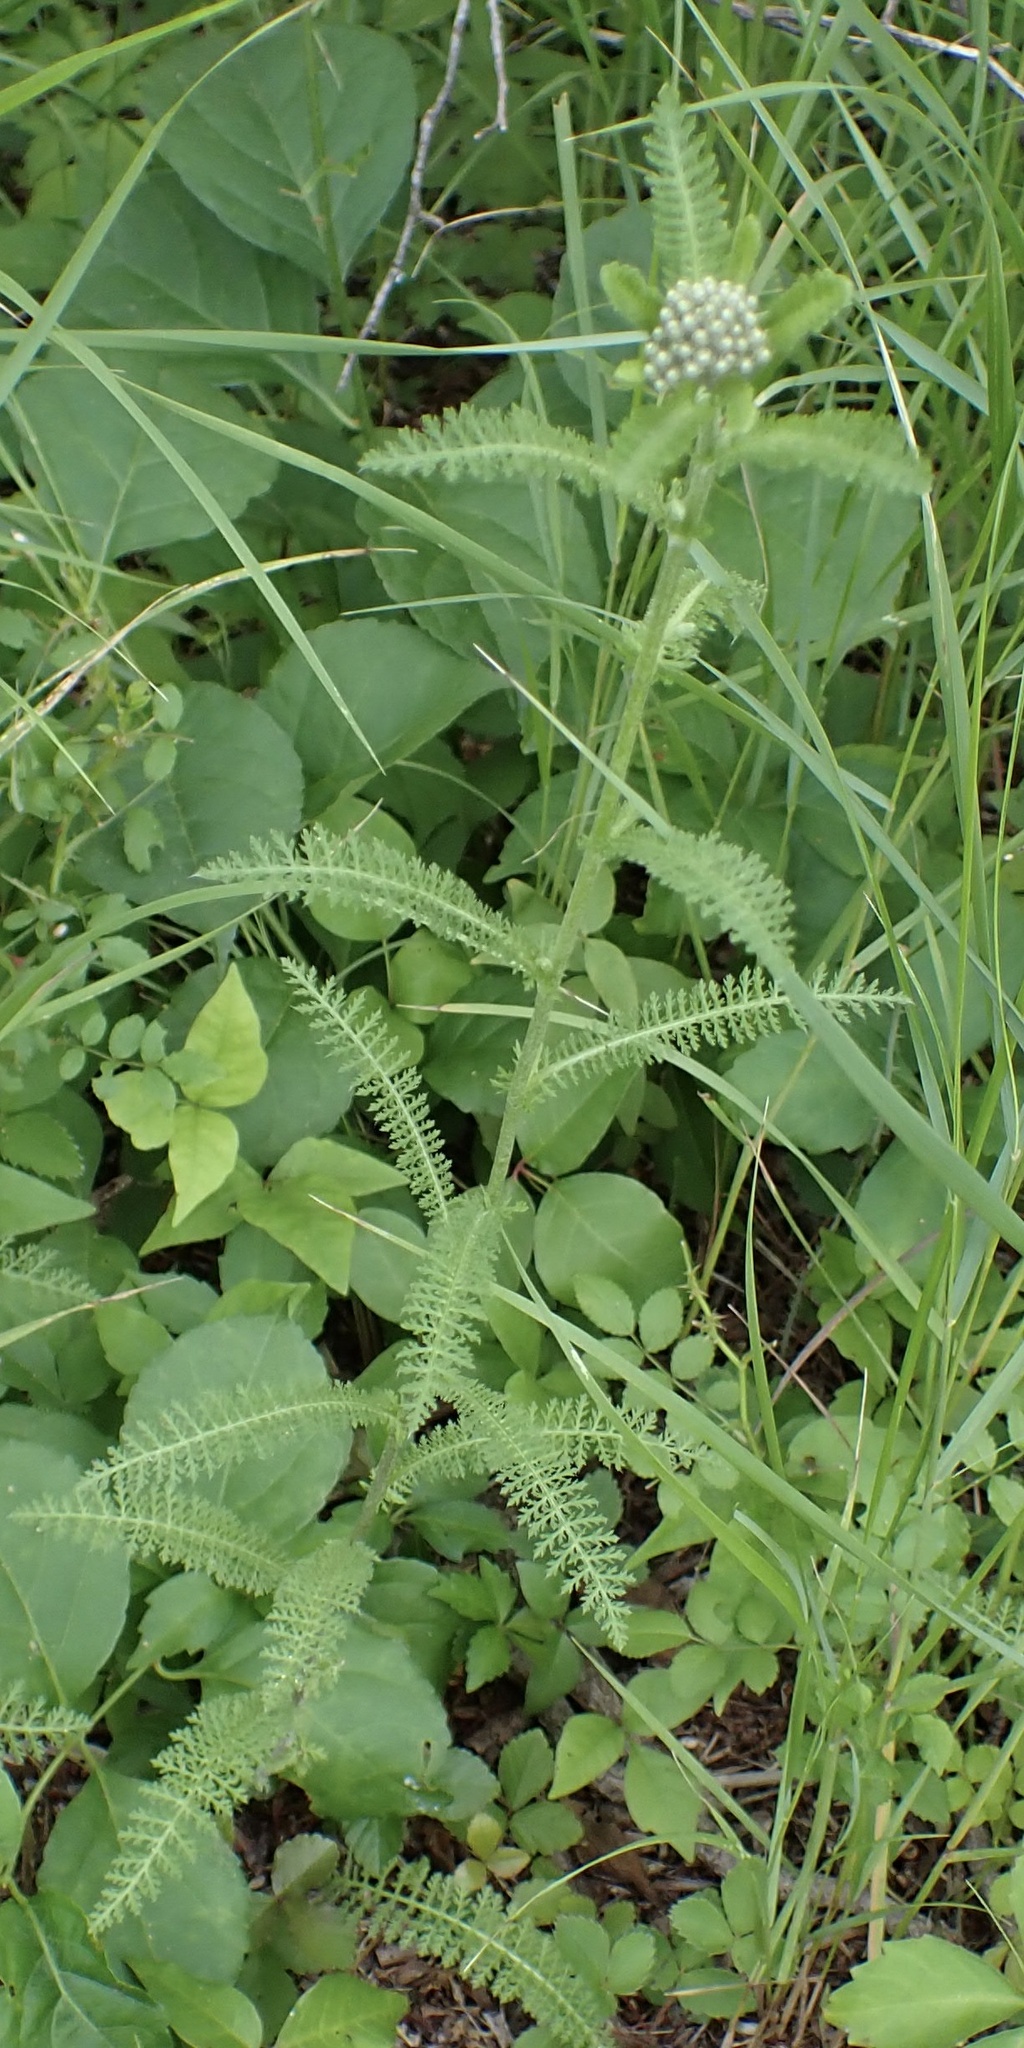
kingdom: Plantae
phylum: Tracheophyta
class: Magnoliopsida
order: Asterales
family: Asteraceae
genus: Achillea
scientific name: Achillea millefolium
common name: Yarrow
